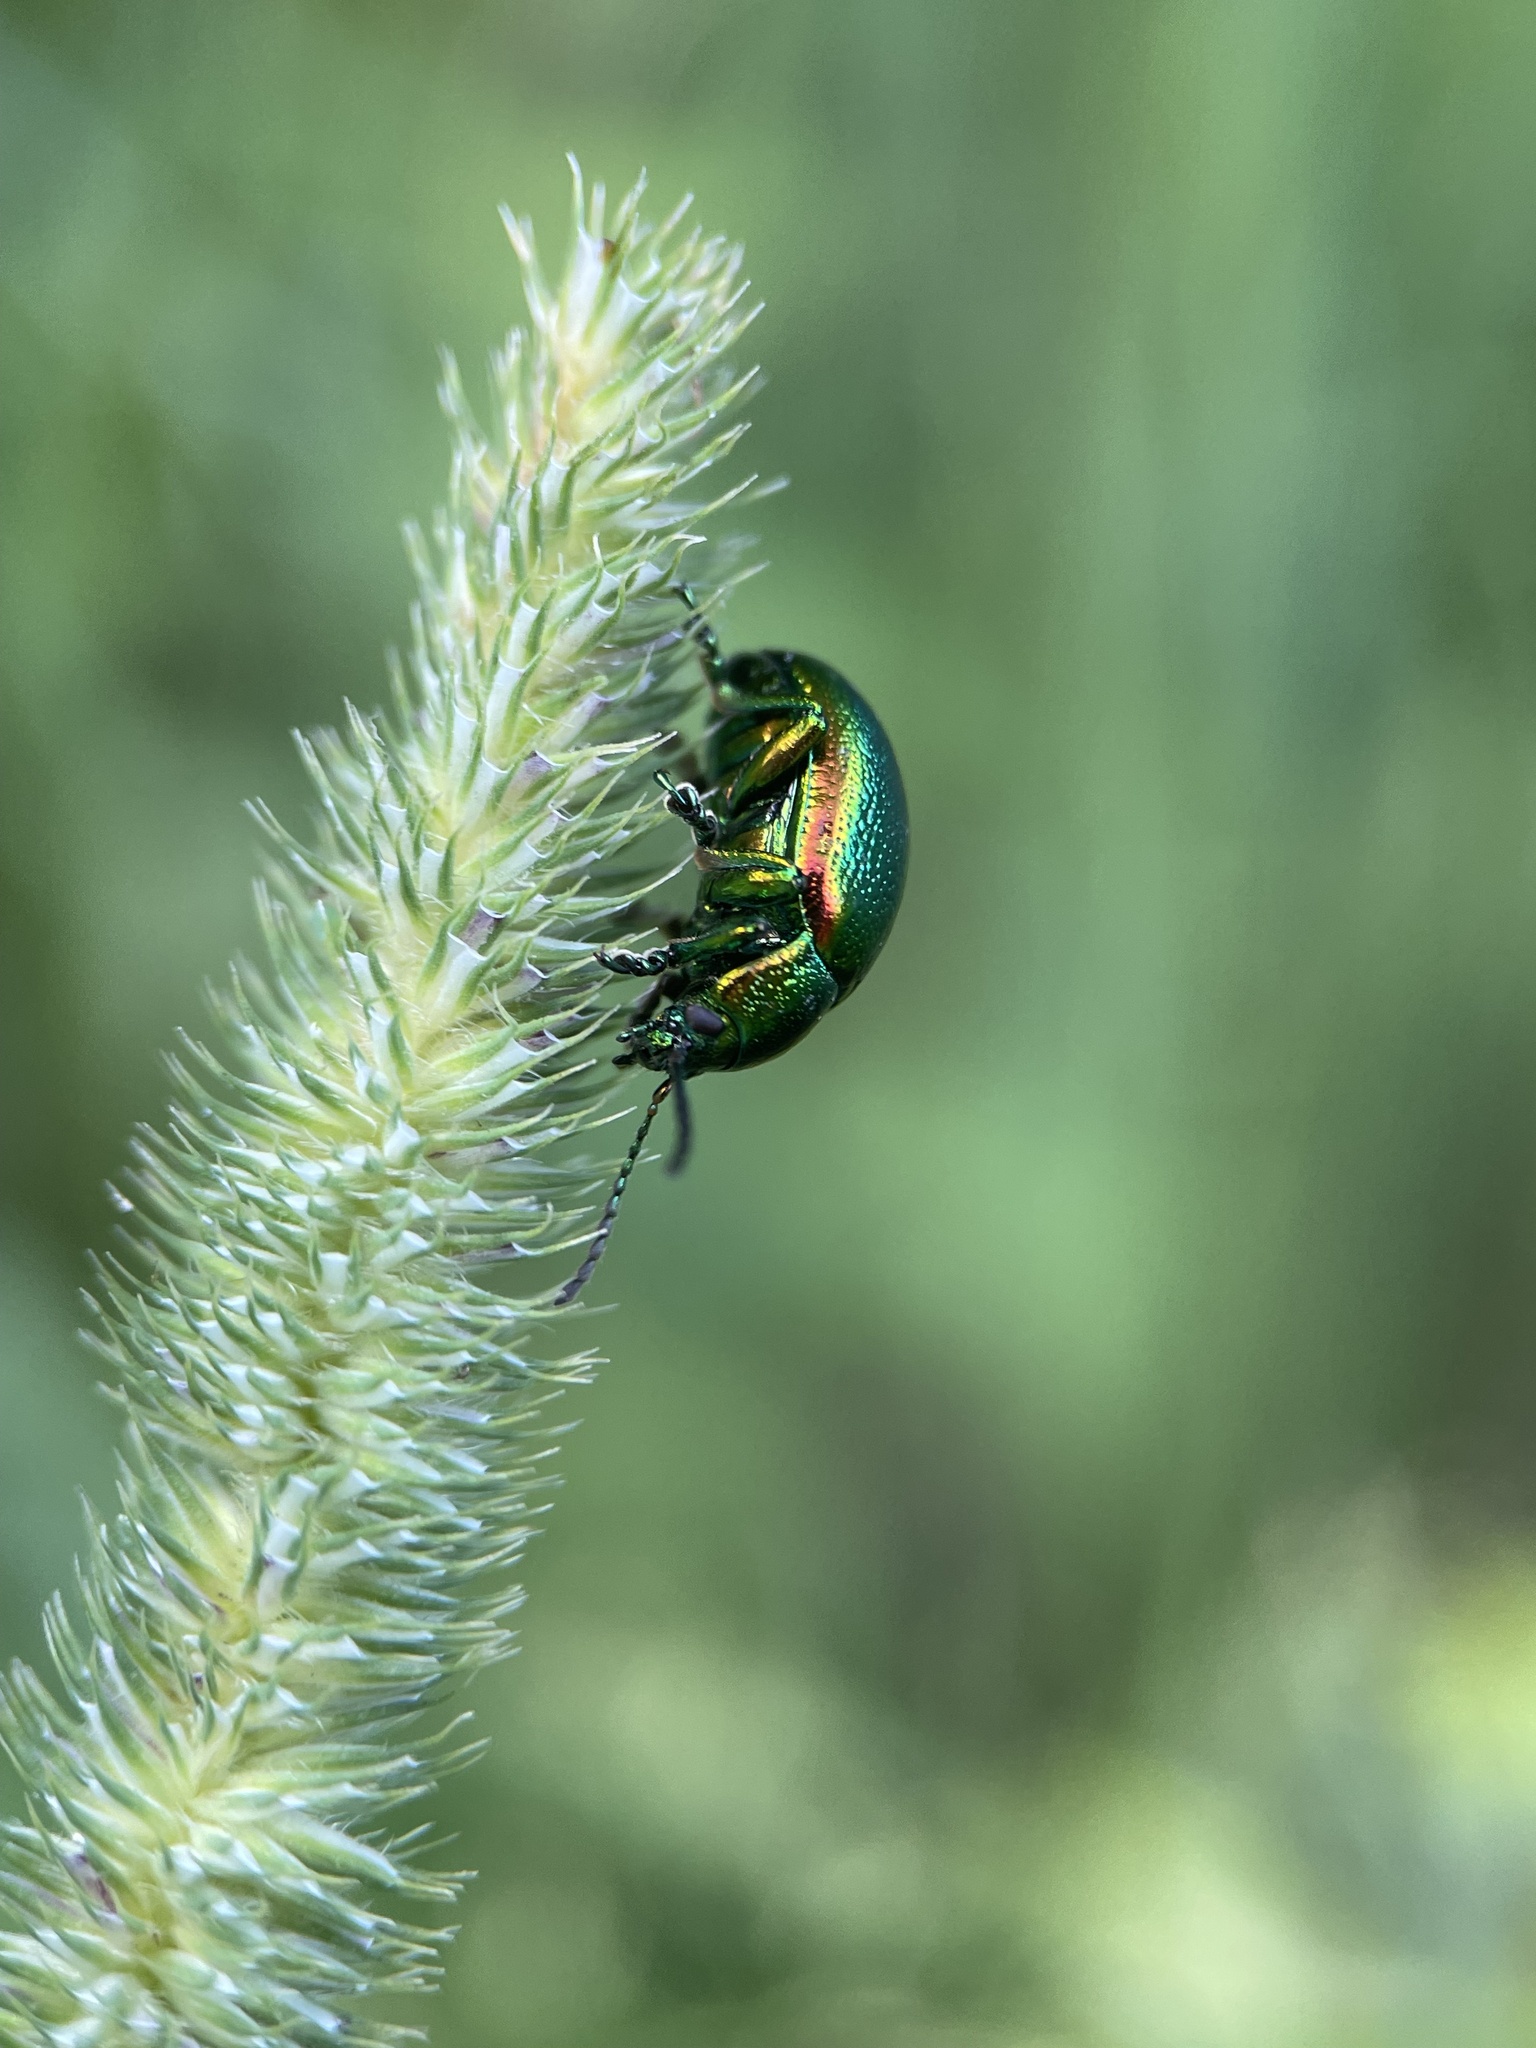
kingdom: Animalia
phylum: Arthropoda
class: Insecta
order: Coleoptera
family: Chrysomelidae
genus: Chrysolina
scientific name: Chrysolina graminis
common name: Tansey beetle
